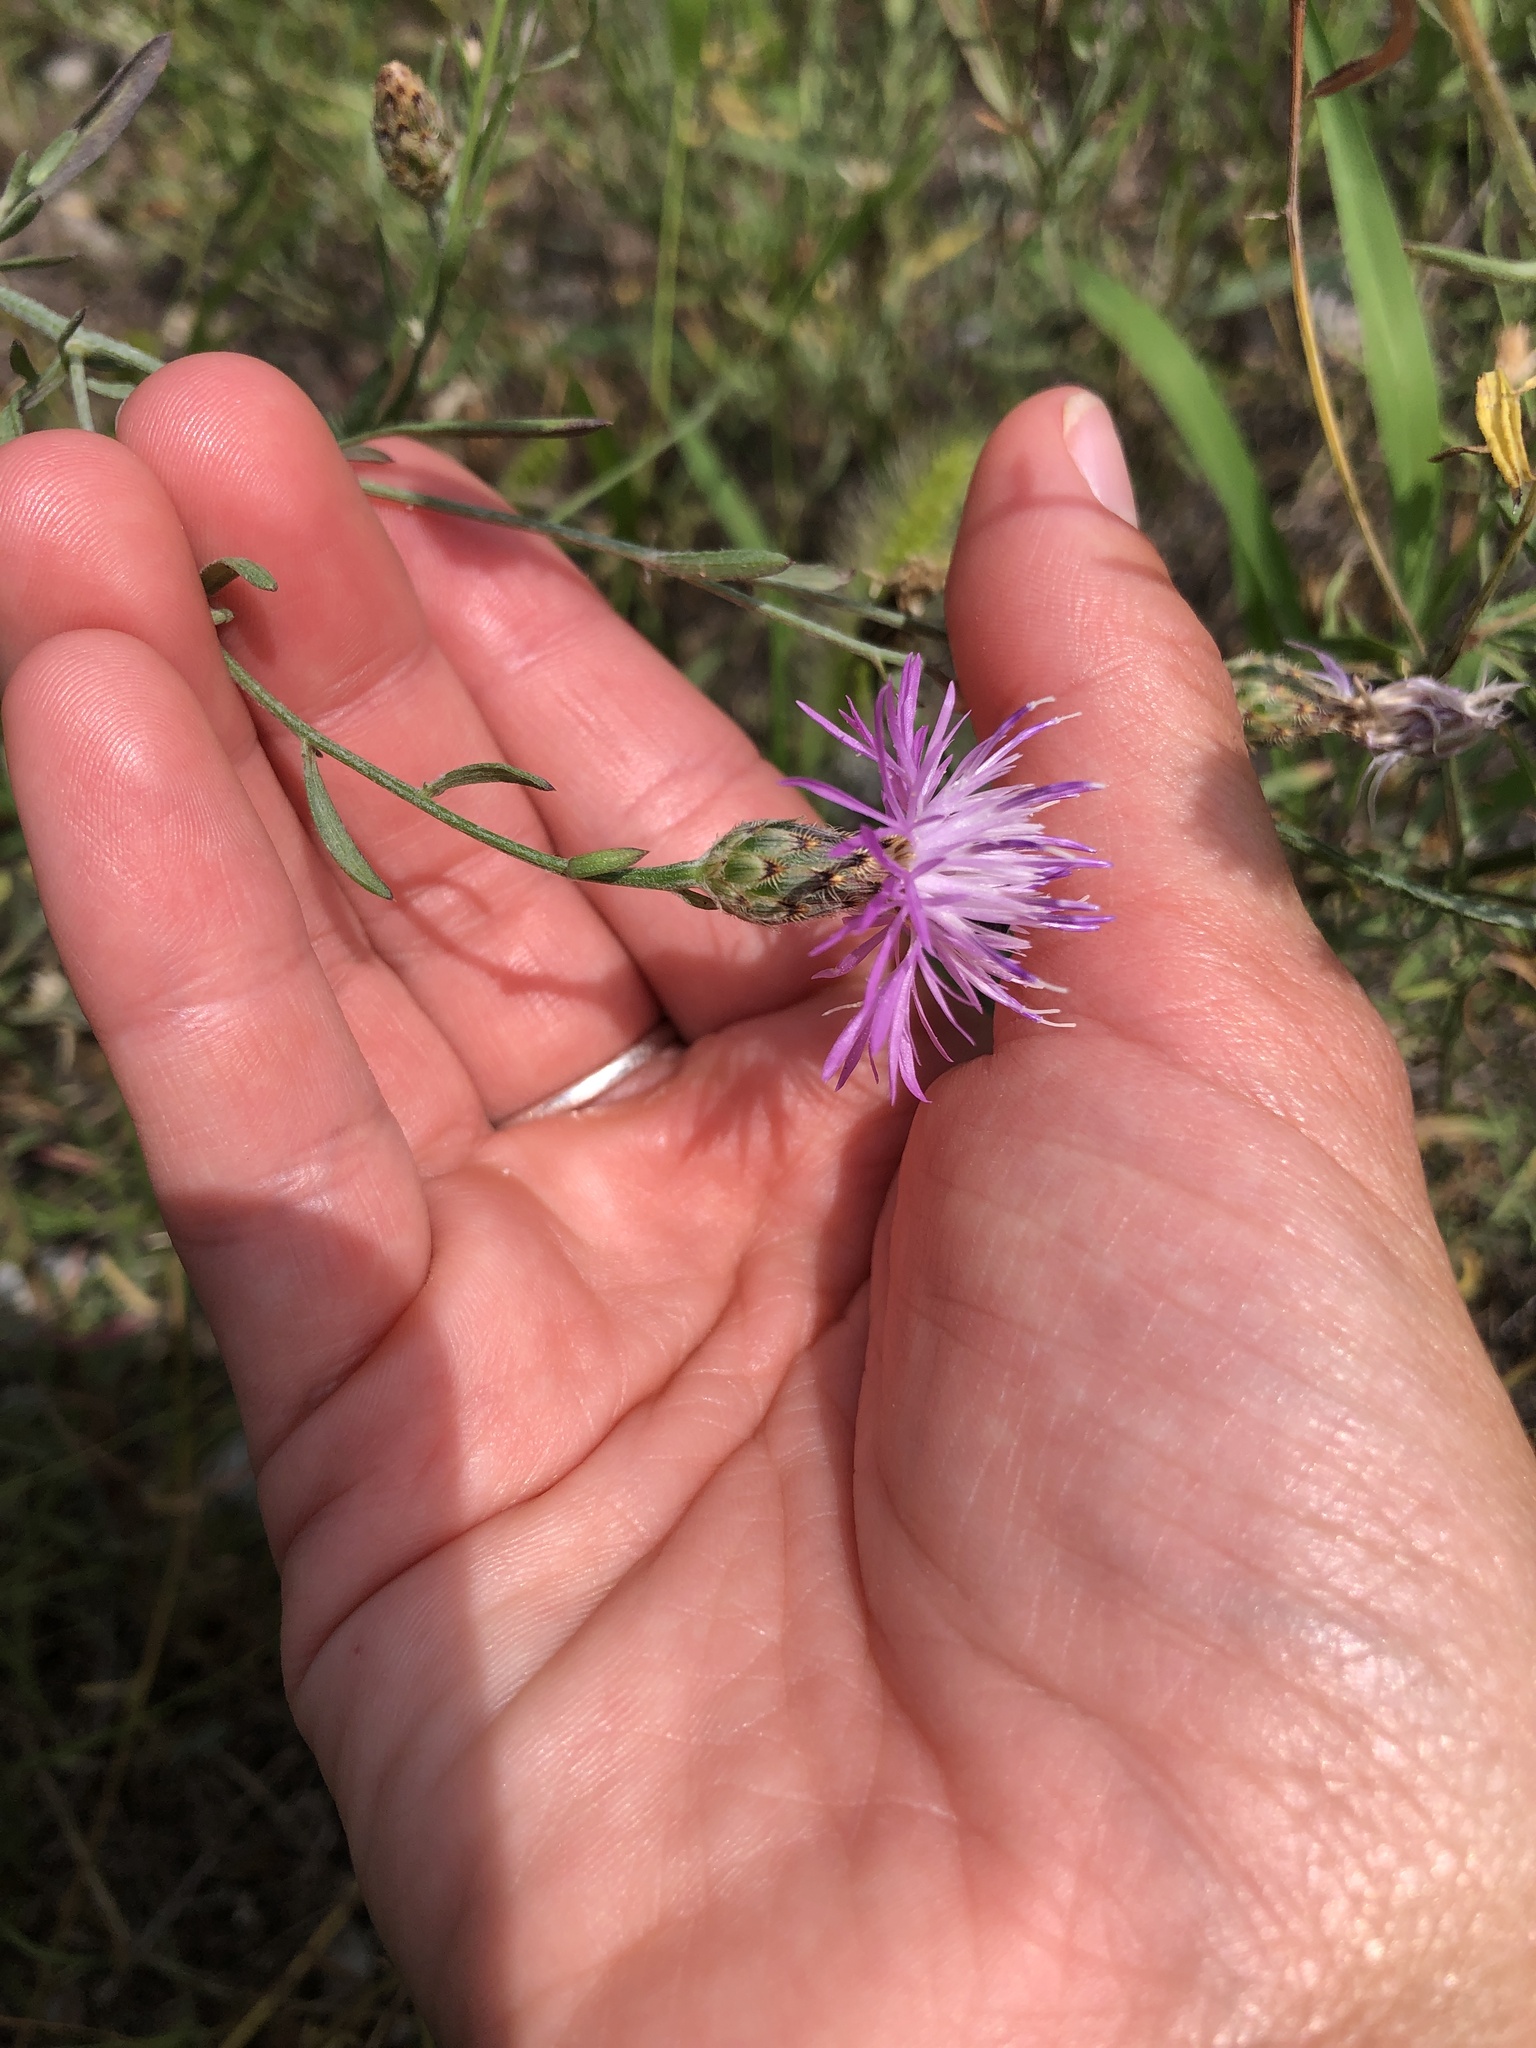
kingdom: Plantae
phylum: Tracheophyta
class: Magnoliopsida
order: Asterales
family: Asteraceae
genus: Centaurea
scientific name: Centaurea stoebe
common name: Spotted knapweed
